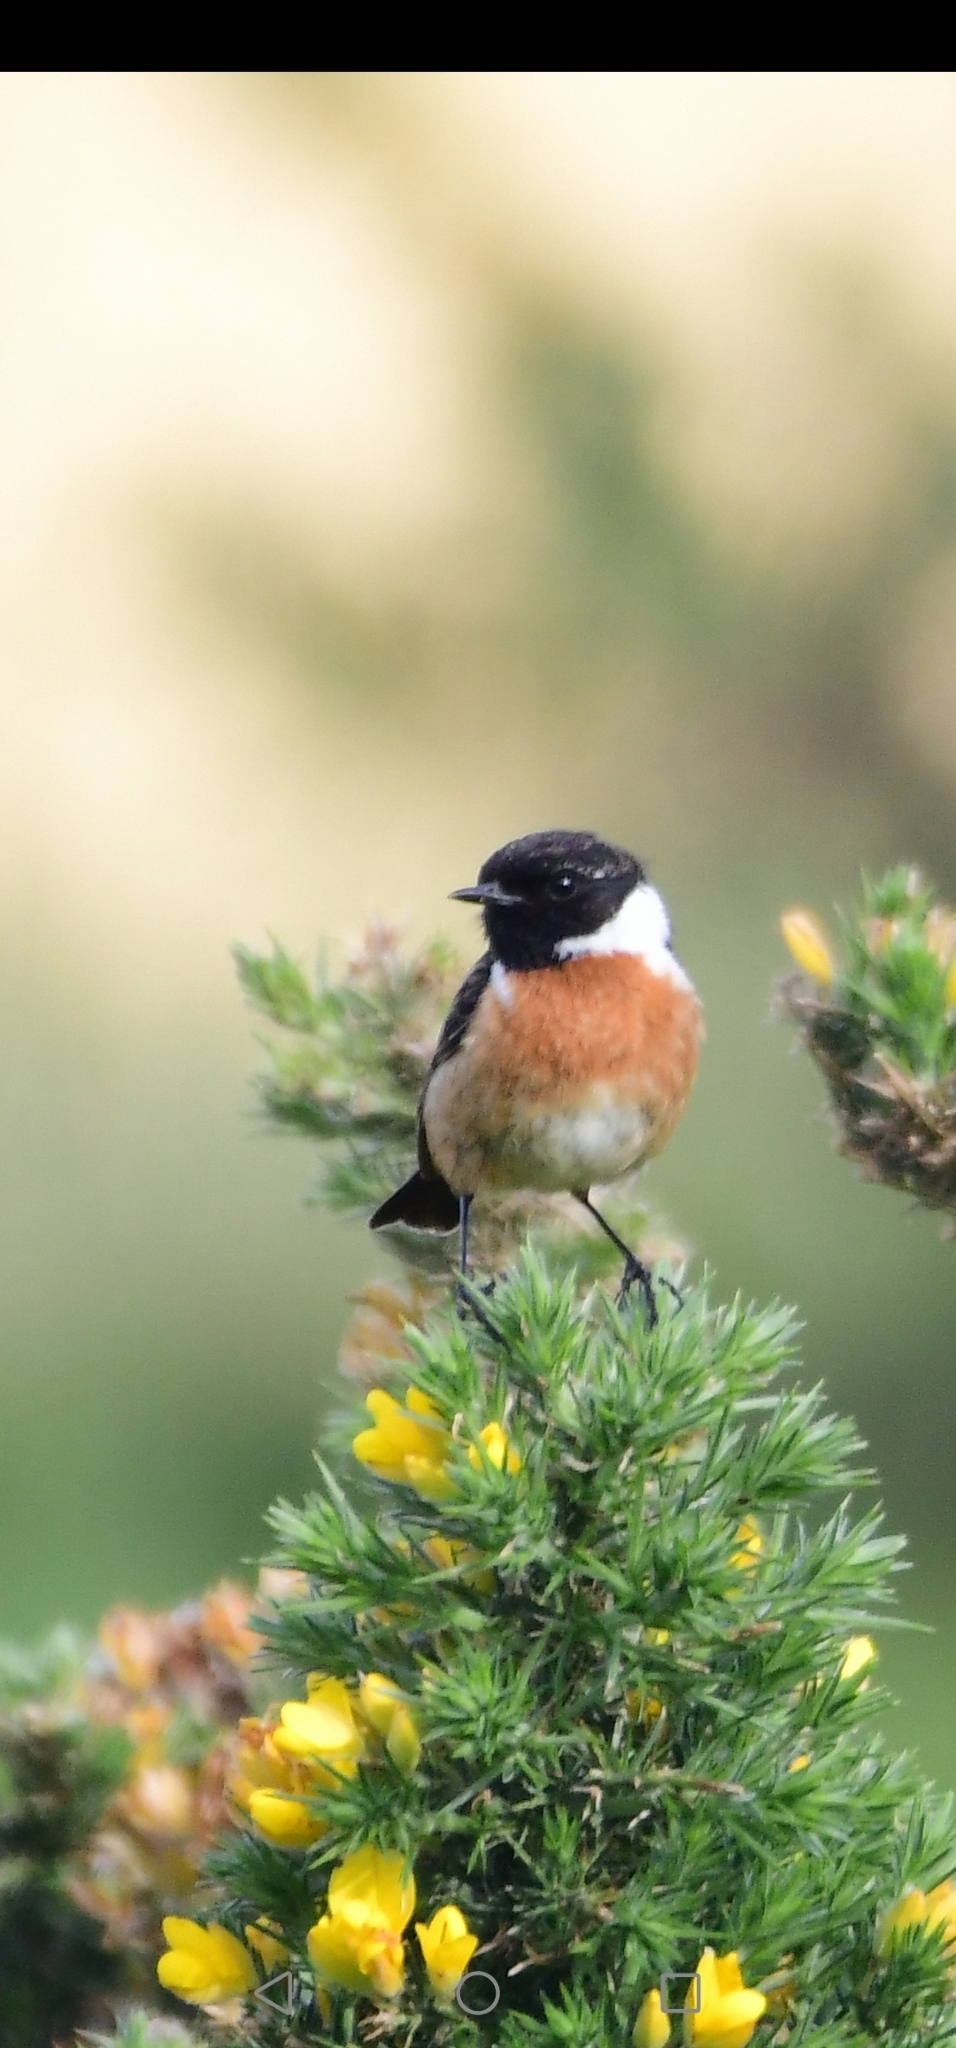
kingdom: Animalia
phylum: Chordata
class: Aves
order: Passeriformes
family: Muscicapidae
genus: Saxicola
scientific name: Saxicola rubicola
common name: European stonechat
